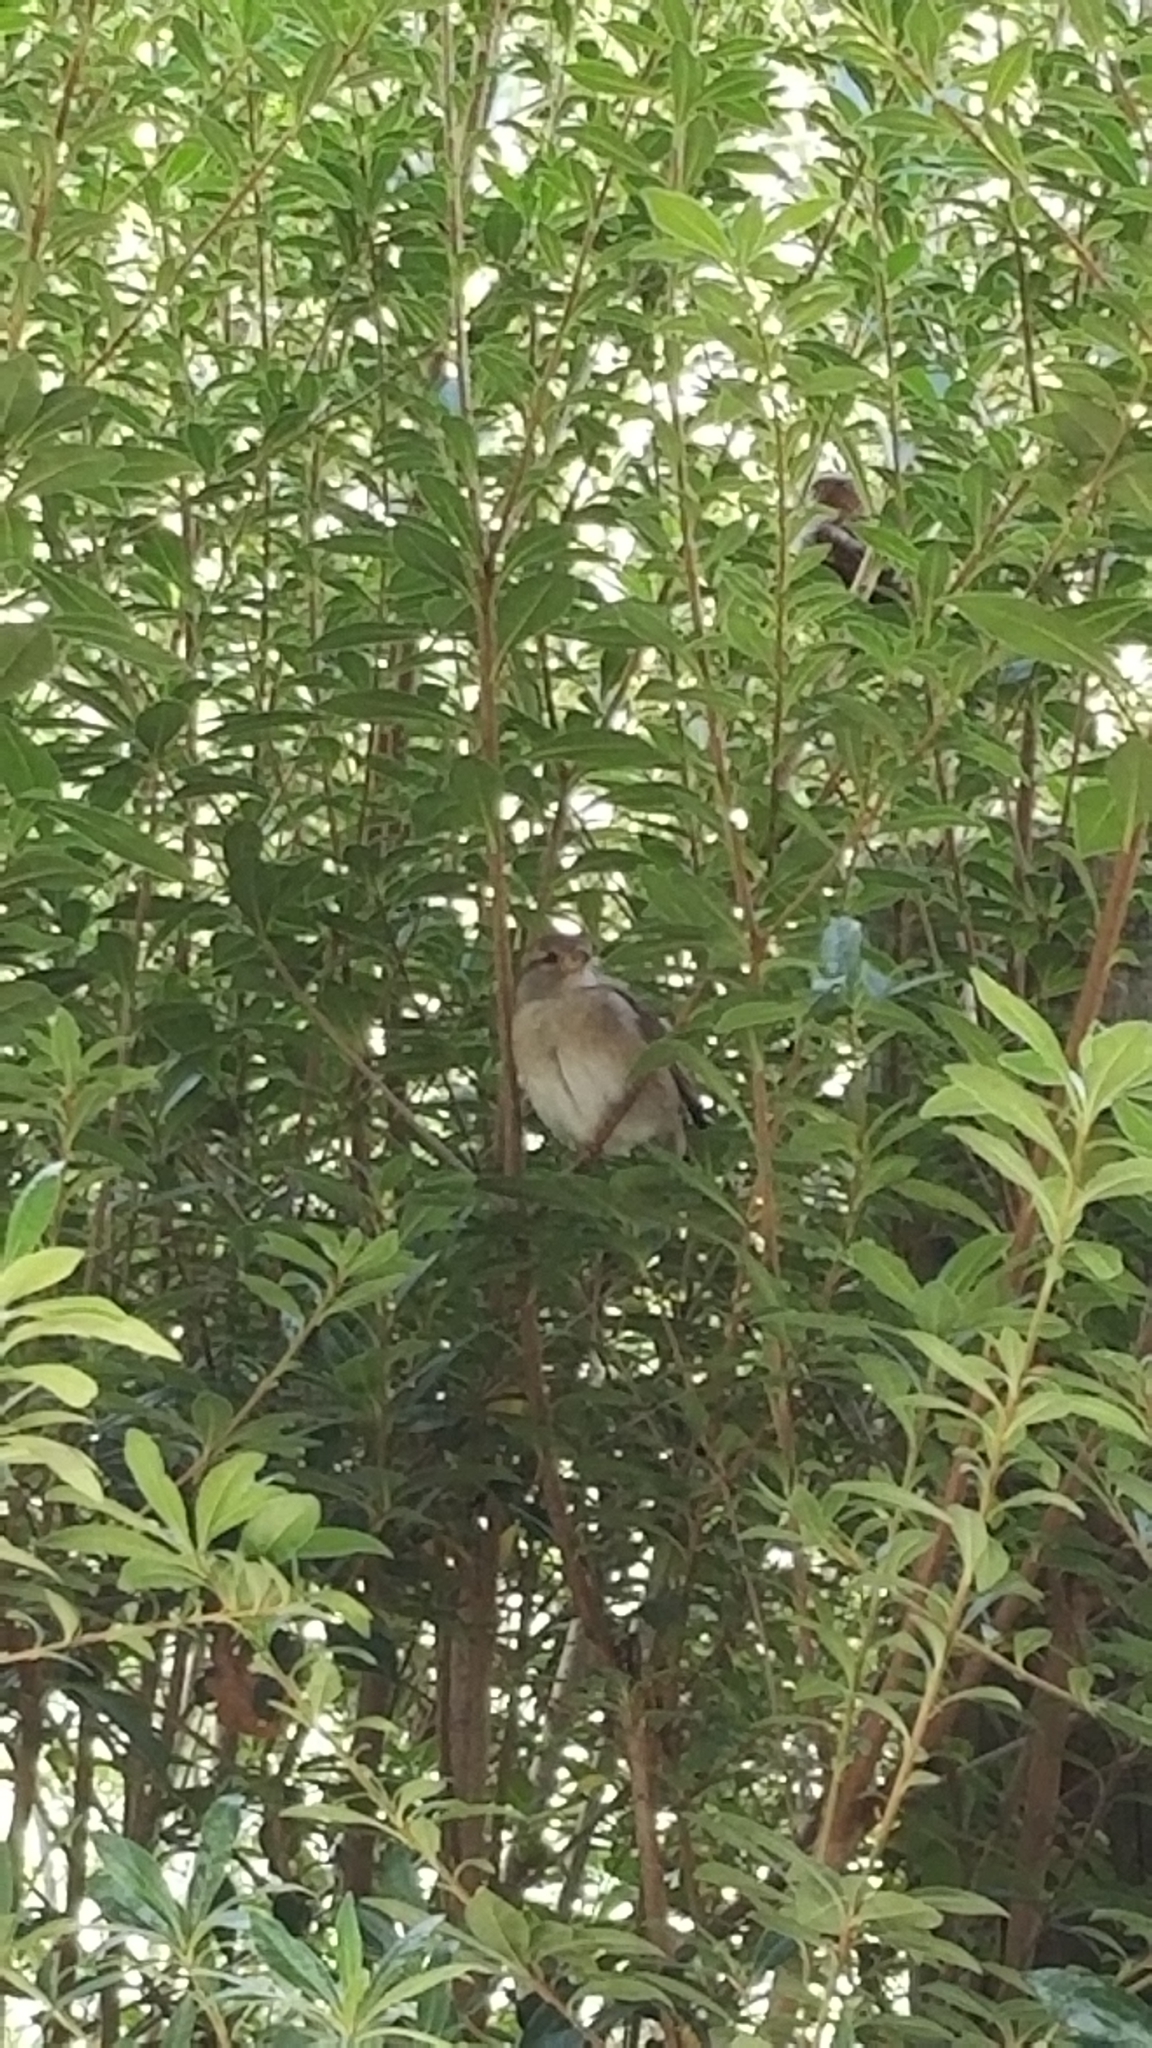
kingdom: Animalia
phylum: Chordata
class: Aves
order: Passeriformes
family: Passeridae
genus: Passer
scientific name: Passer domesticus
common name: House sparrow
